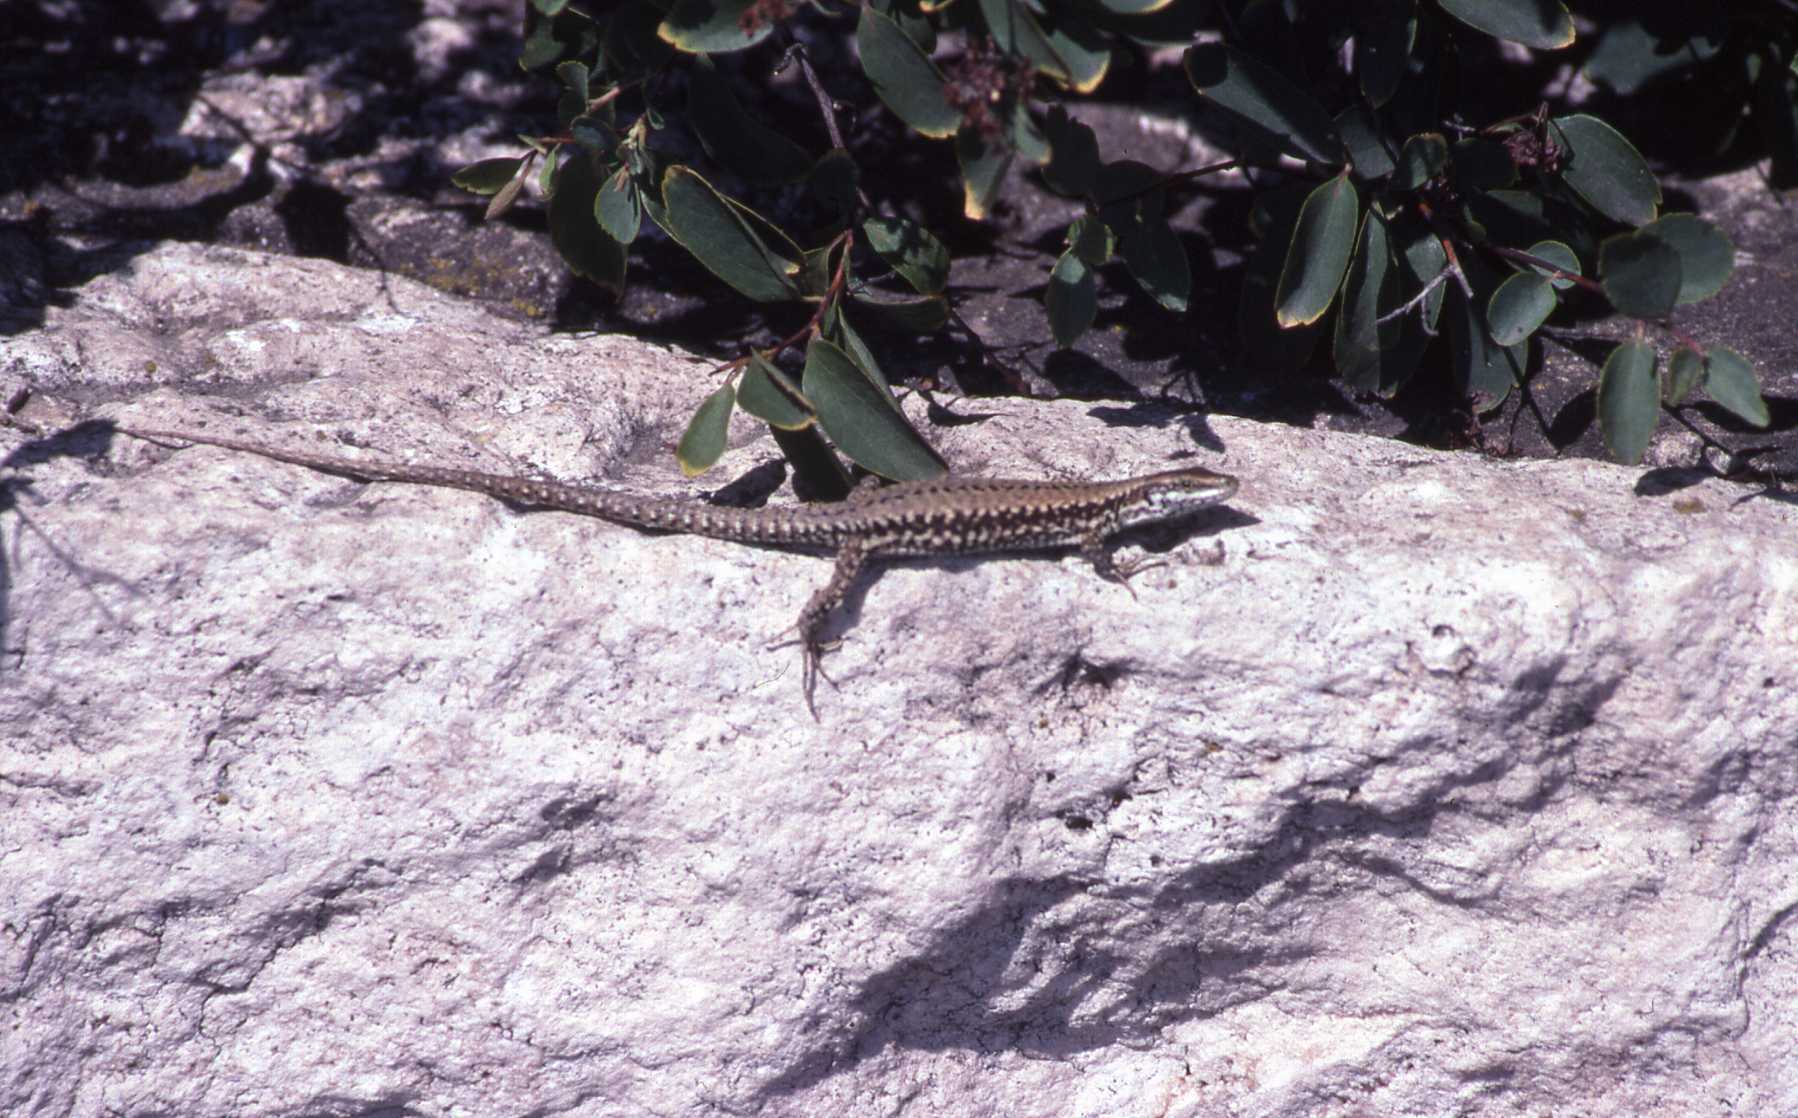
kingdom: Animalia
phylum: Chordata
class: Squamata
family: Lacertidae
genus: Podarcis
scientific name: Podarcis muralis
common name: Common wall lizard
